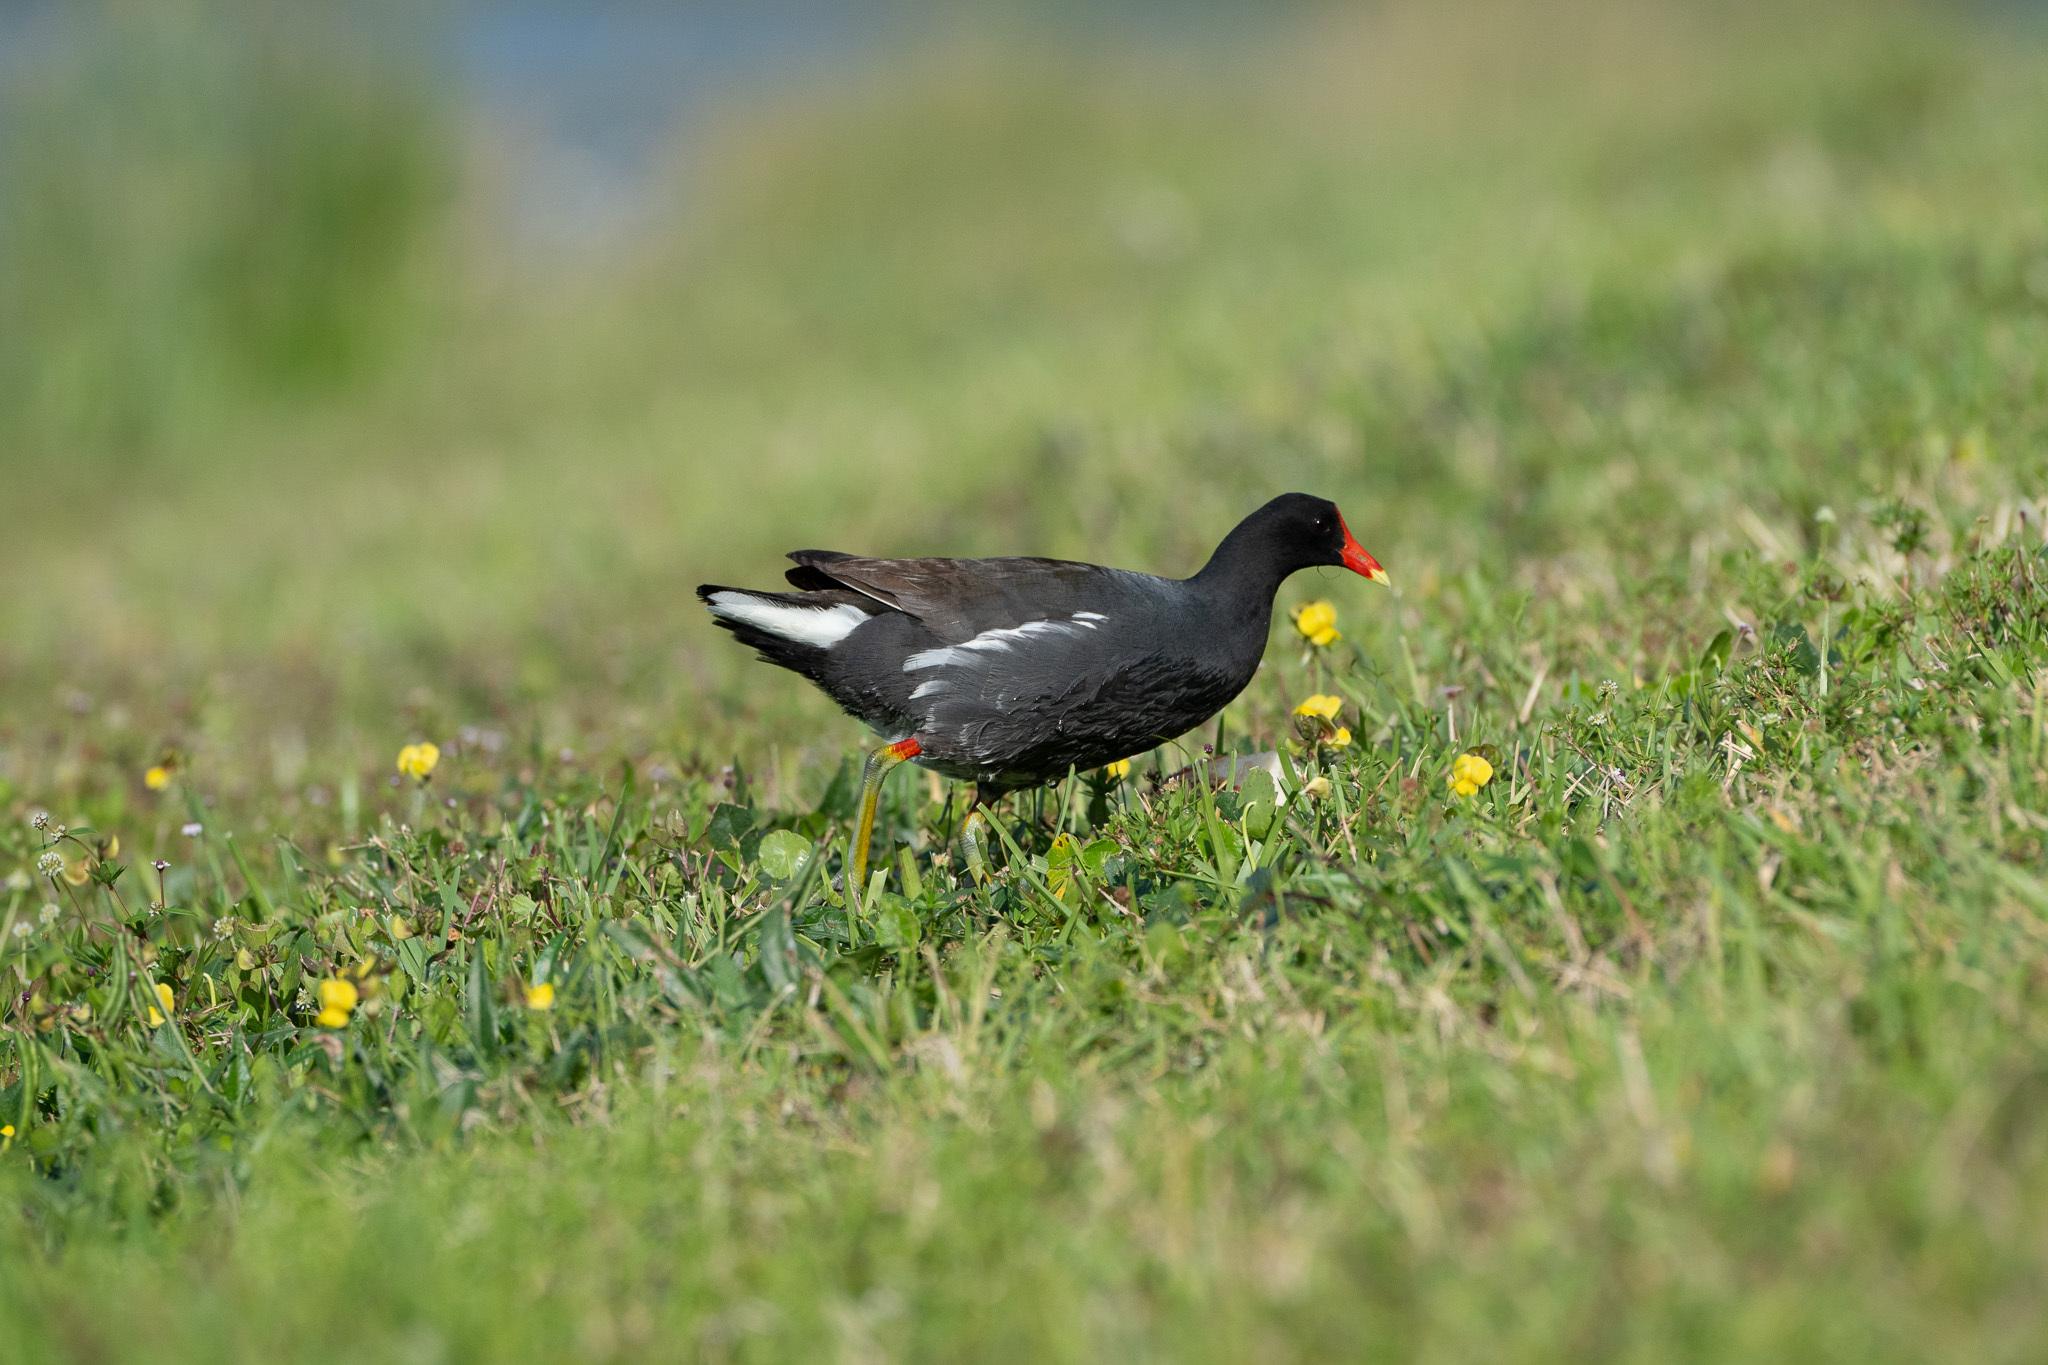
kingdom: Animalia
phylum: Chordata
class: Aves
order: Gruiformes
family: Rallidae
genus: Gallinula
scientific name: Gallinula chloropus
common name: Common moorhen
